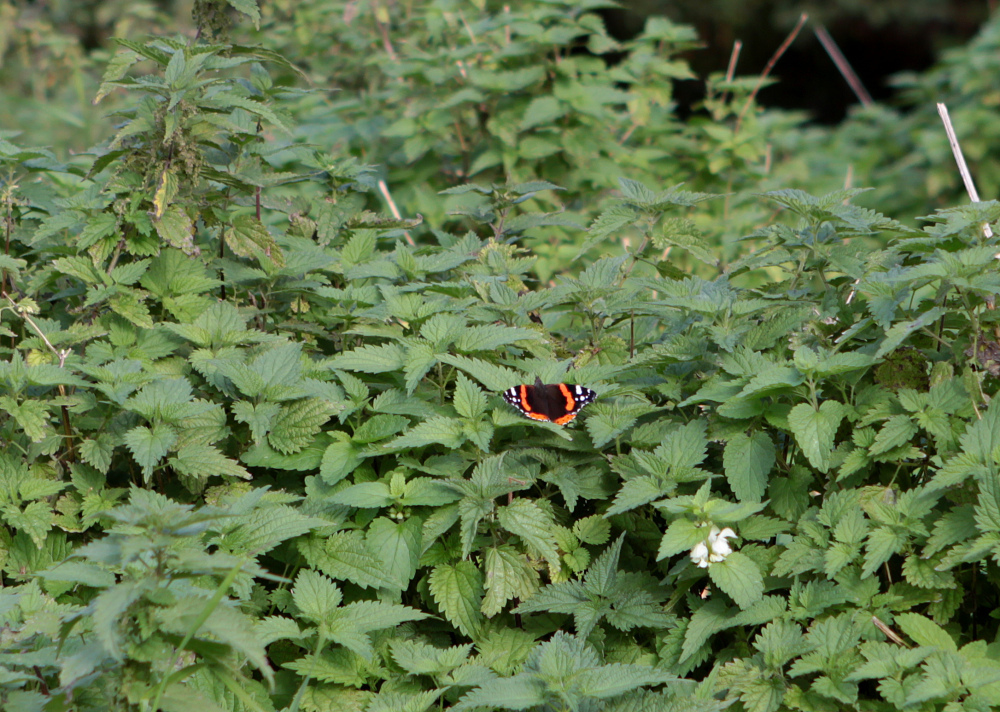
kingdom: Animalia
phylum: Arthropoda
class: Insecta
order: Lepidoptera
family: Nymphalidae
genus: Vanessa
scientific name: Vanessa atalanta
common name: Red admiral
